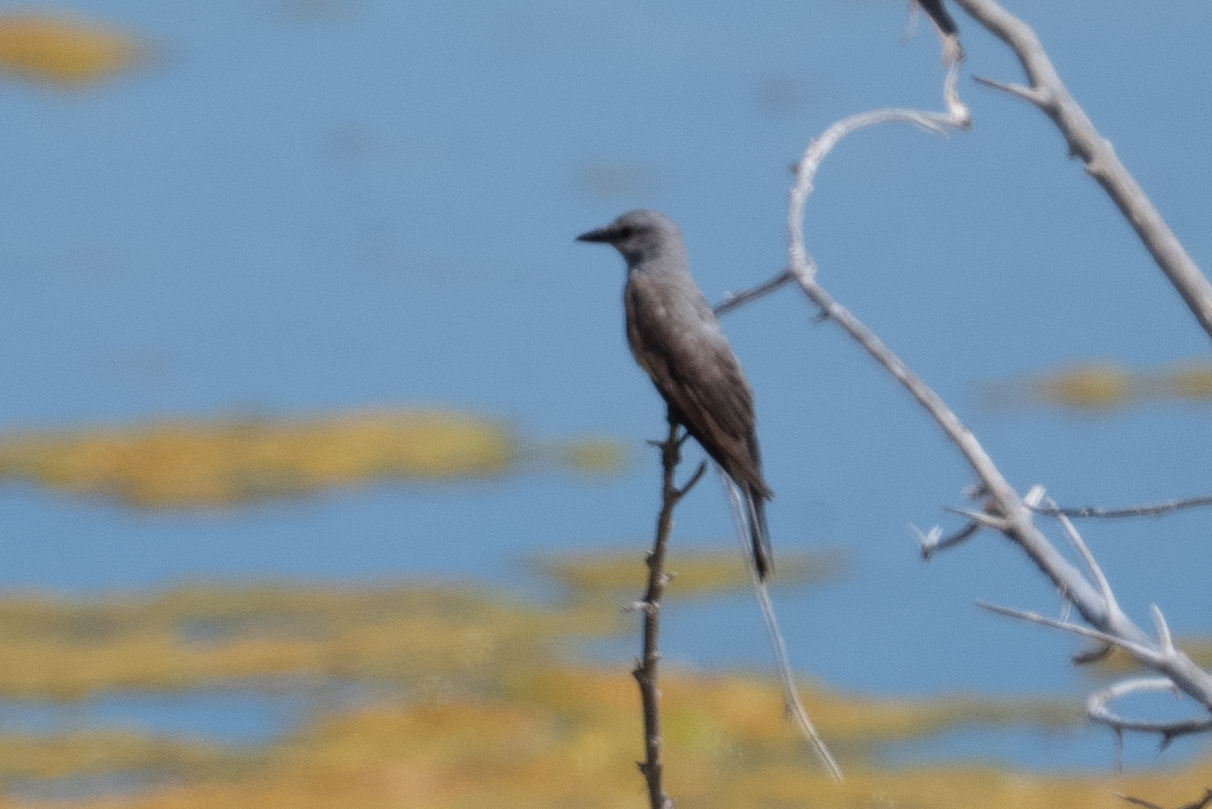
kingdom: Animalia
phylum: Chordata
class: Aves
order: Passeriformes
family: Tyrannidae
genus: Tyrannus
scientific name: Tyrannus verticalis
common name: Western kingbird
